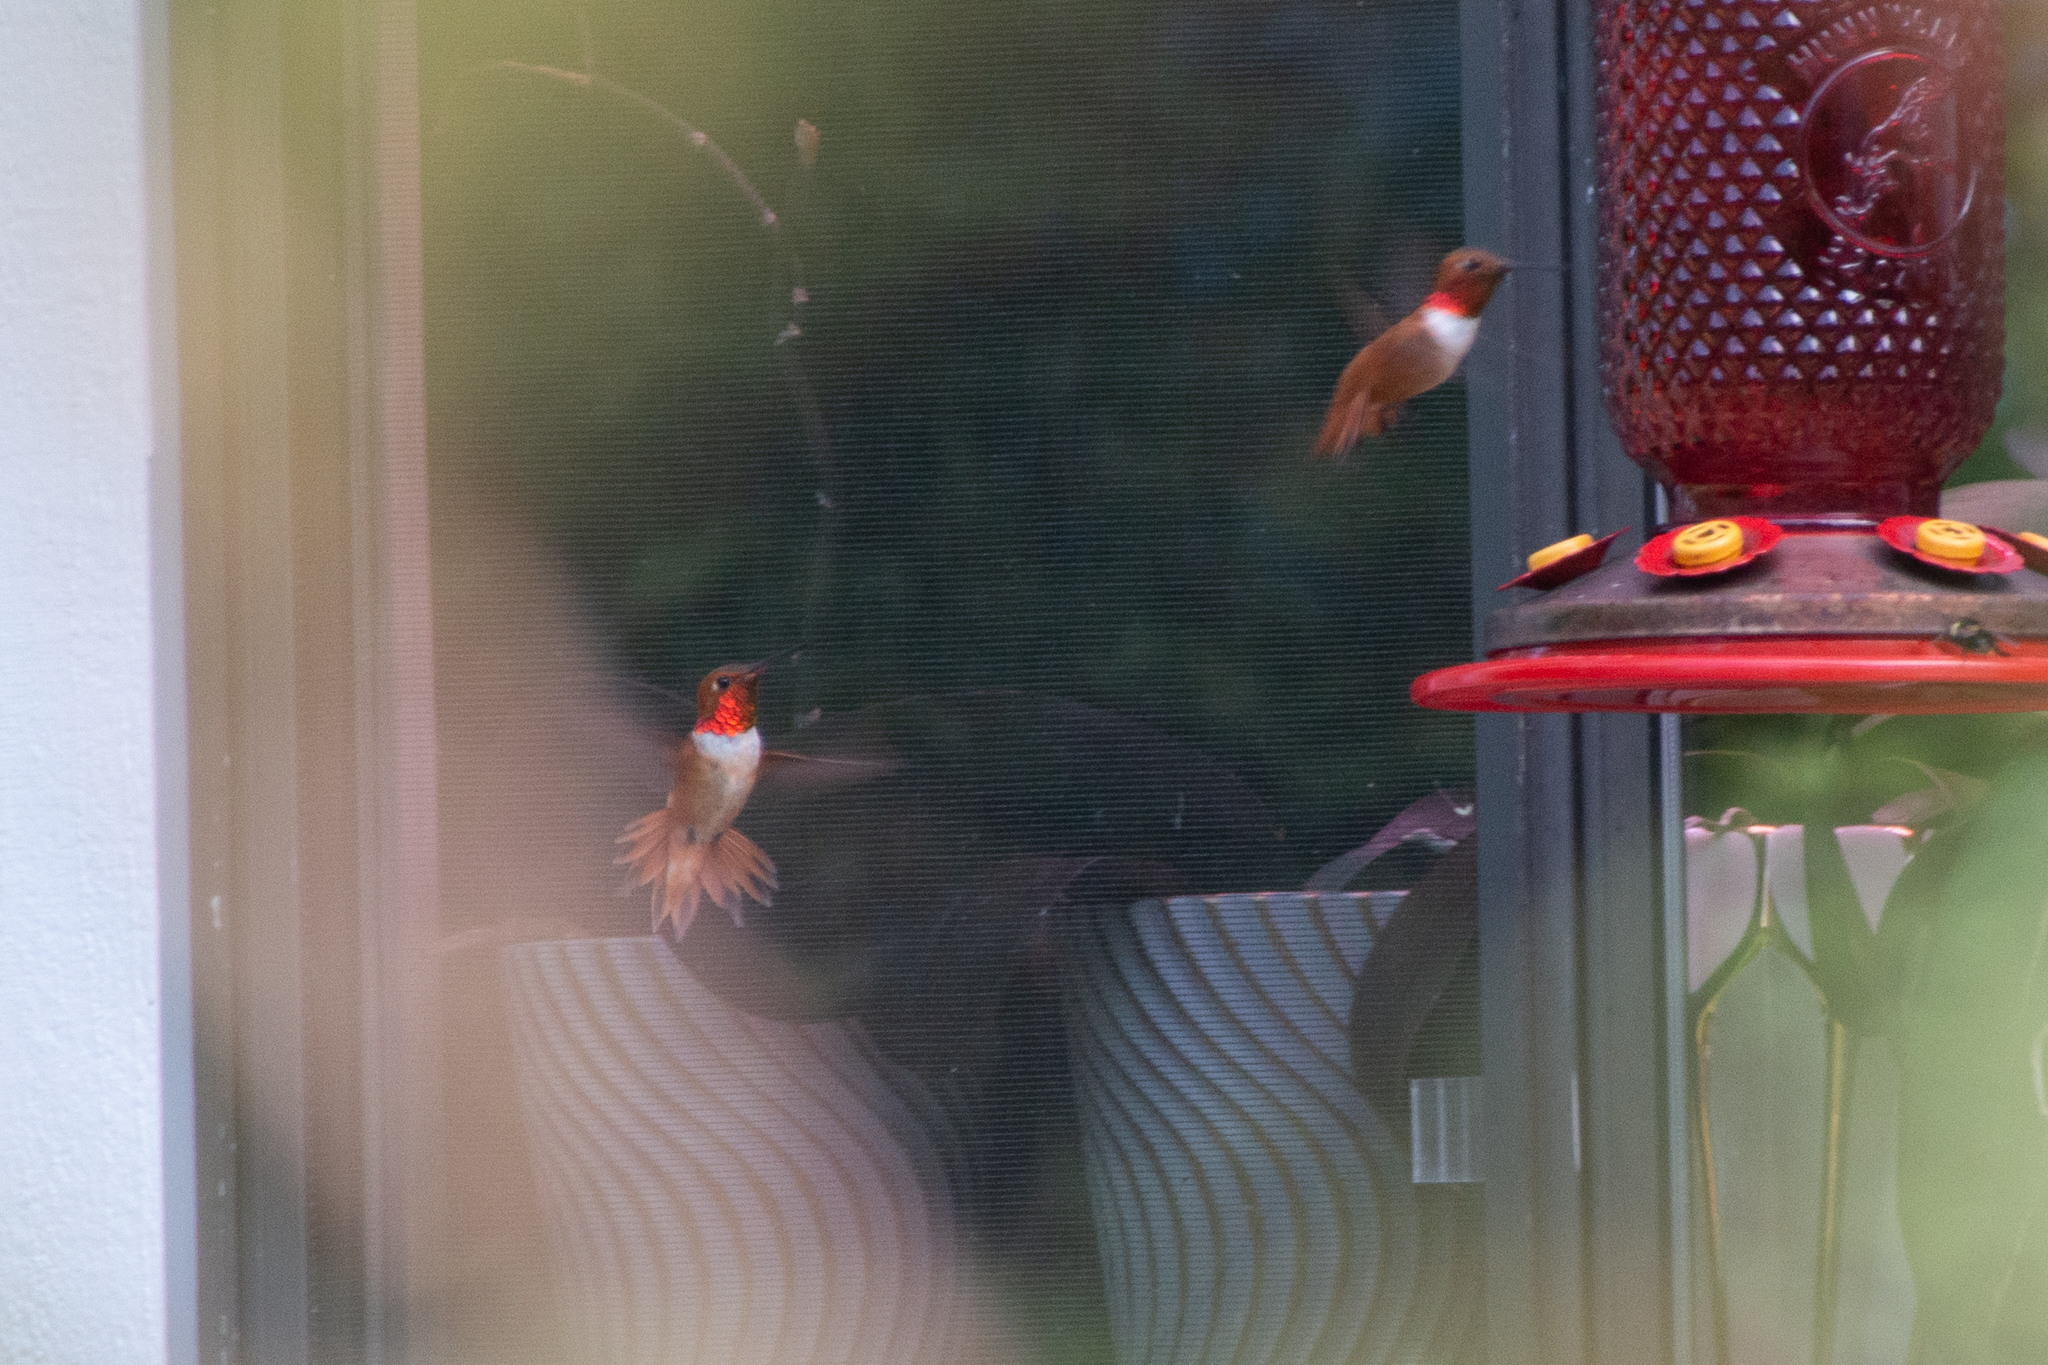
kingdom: Animalia
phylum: Chordata
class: Aves
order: Apodiformes
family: Trochilidae
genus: Selasphorus
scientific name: Selasphorus rufus
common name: Rufous hummingbird
